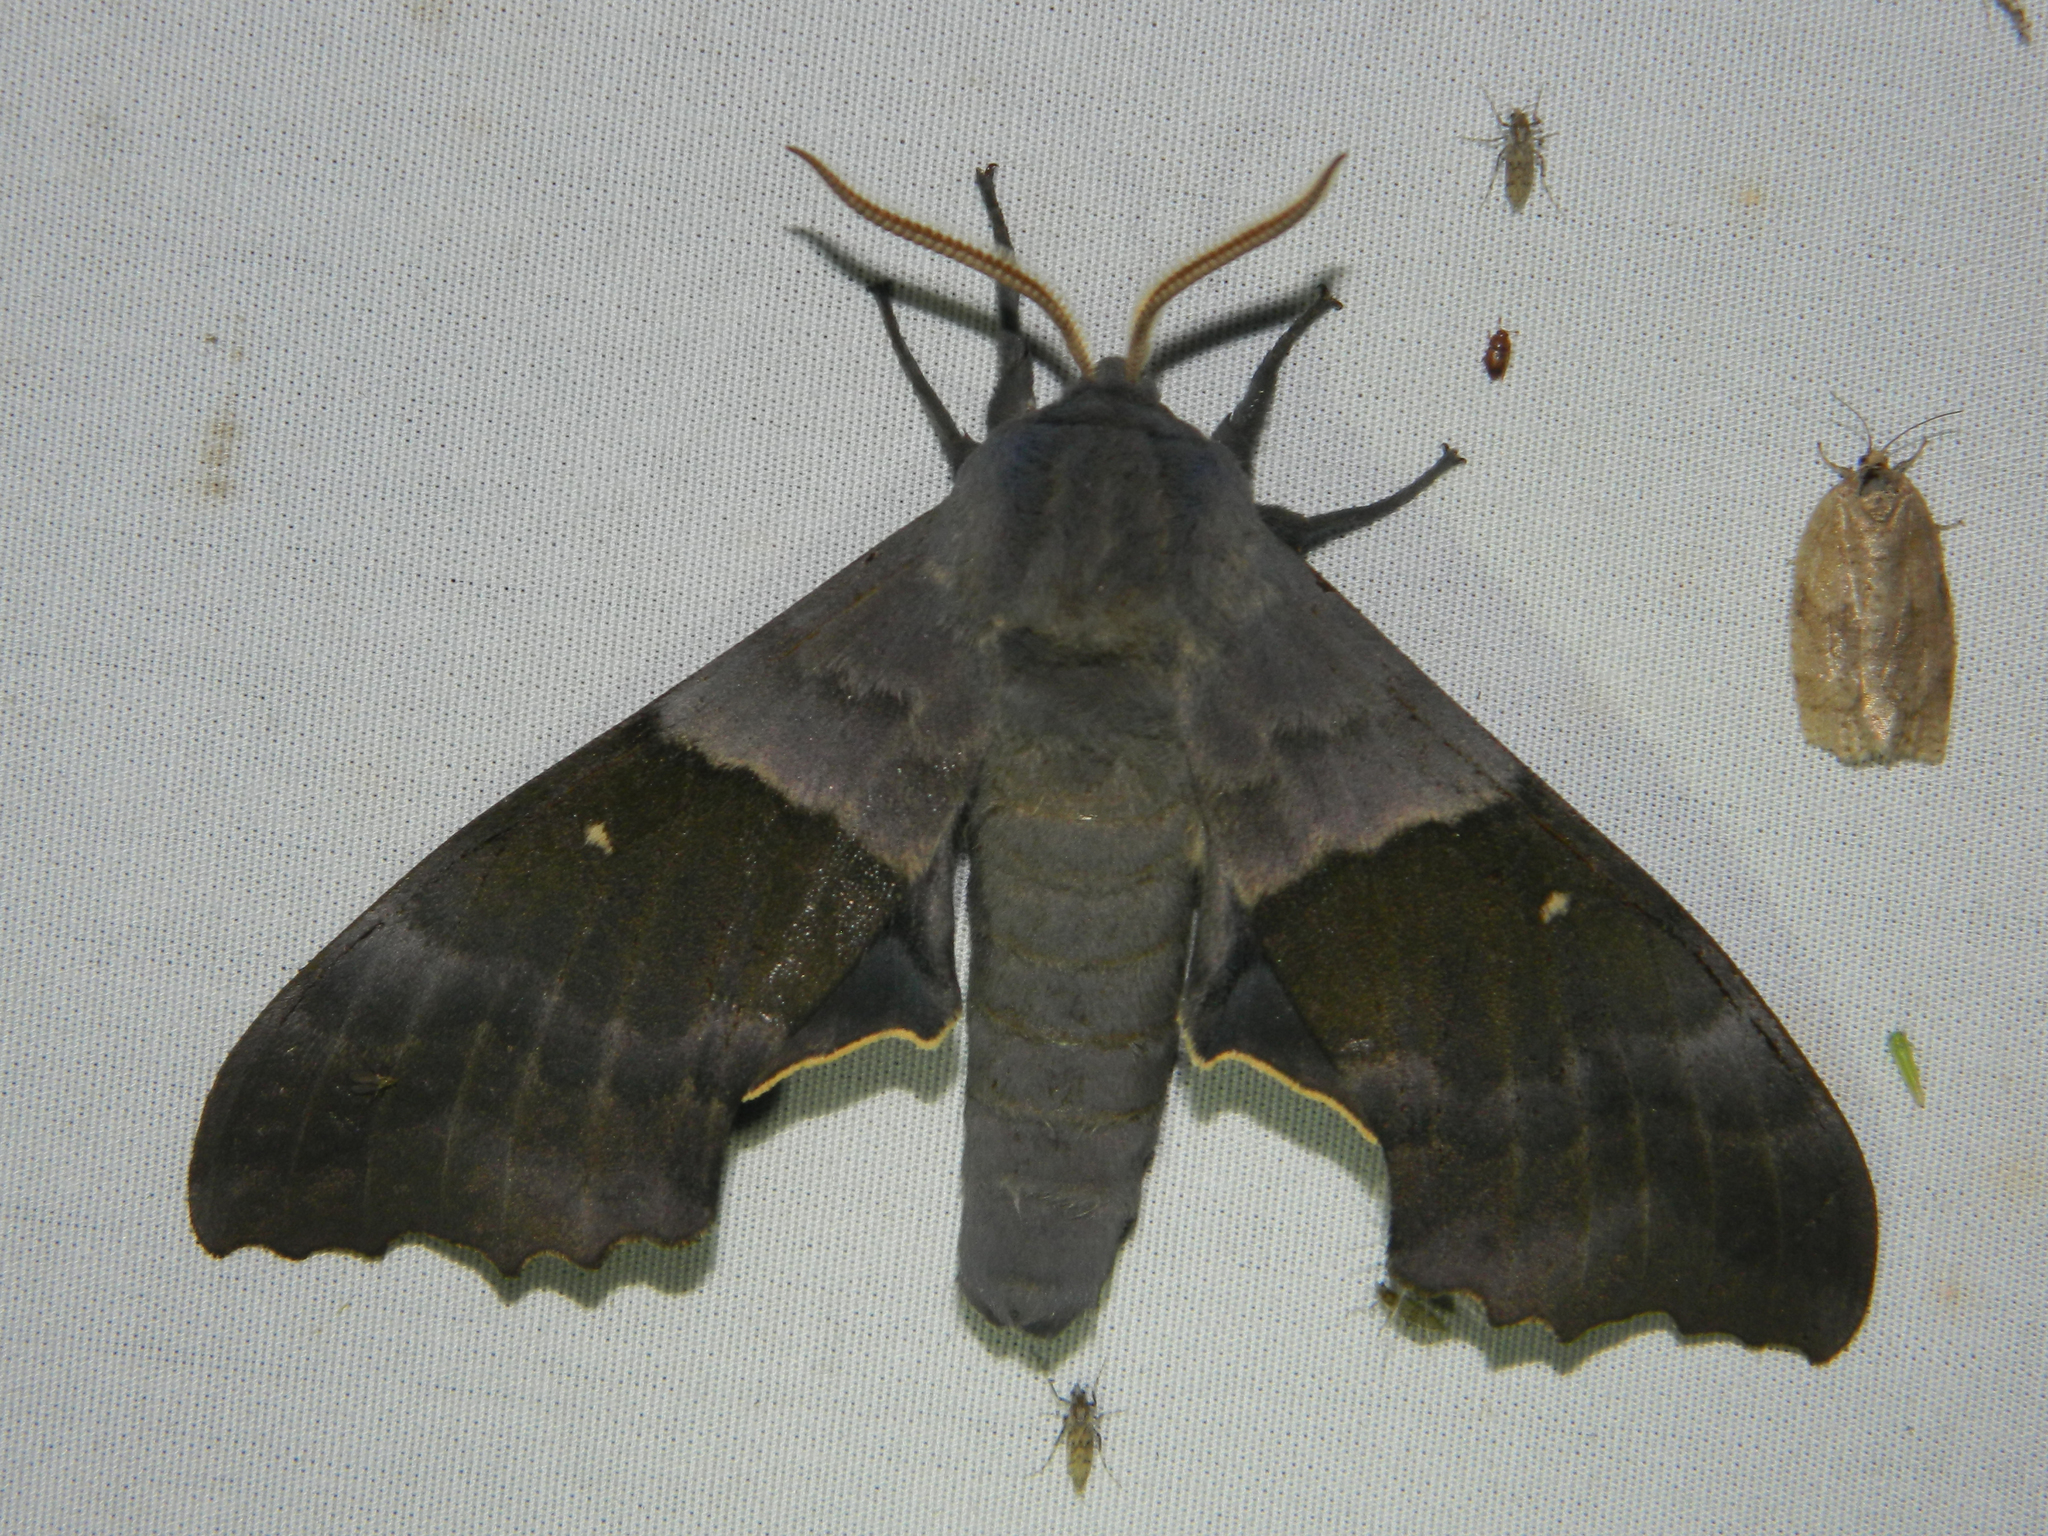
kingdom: Animalia
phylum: Arthropoda
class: Insecta
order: Lepidoptera
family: Sphingidae
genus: Pachysphinx
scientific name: Pachysphinx modesta
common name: Big poplar sphinx
